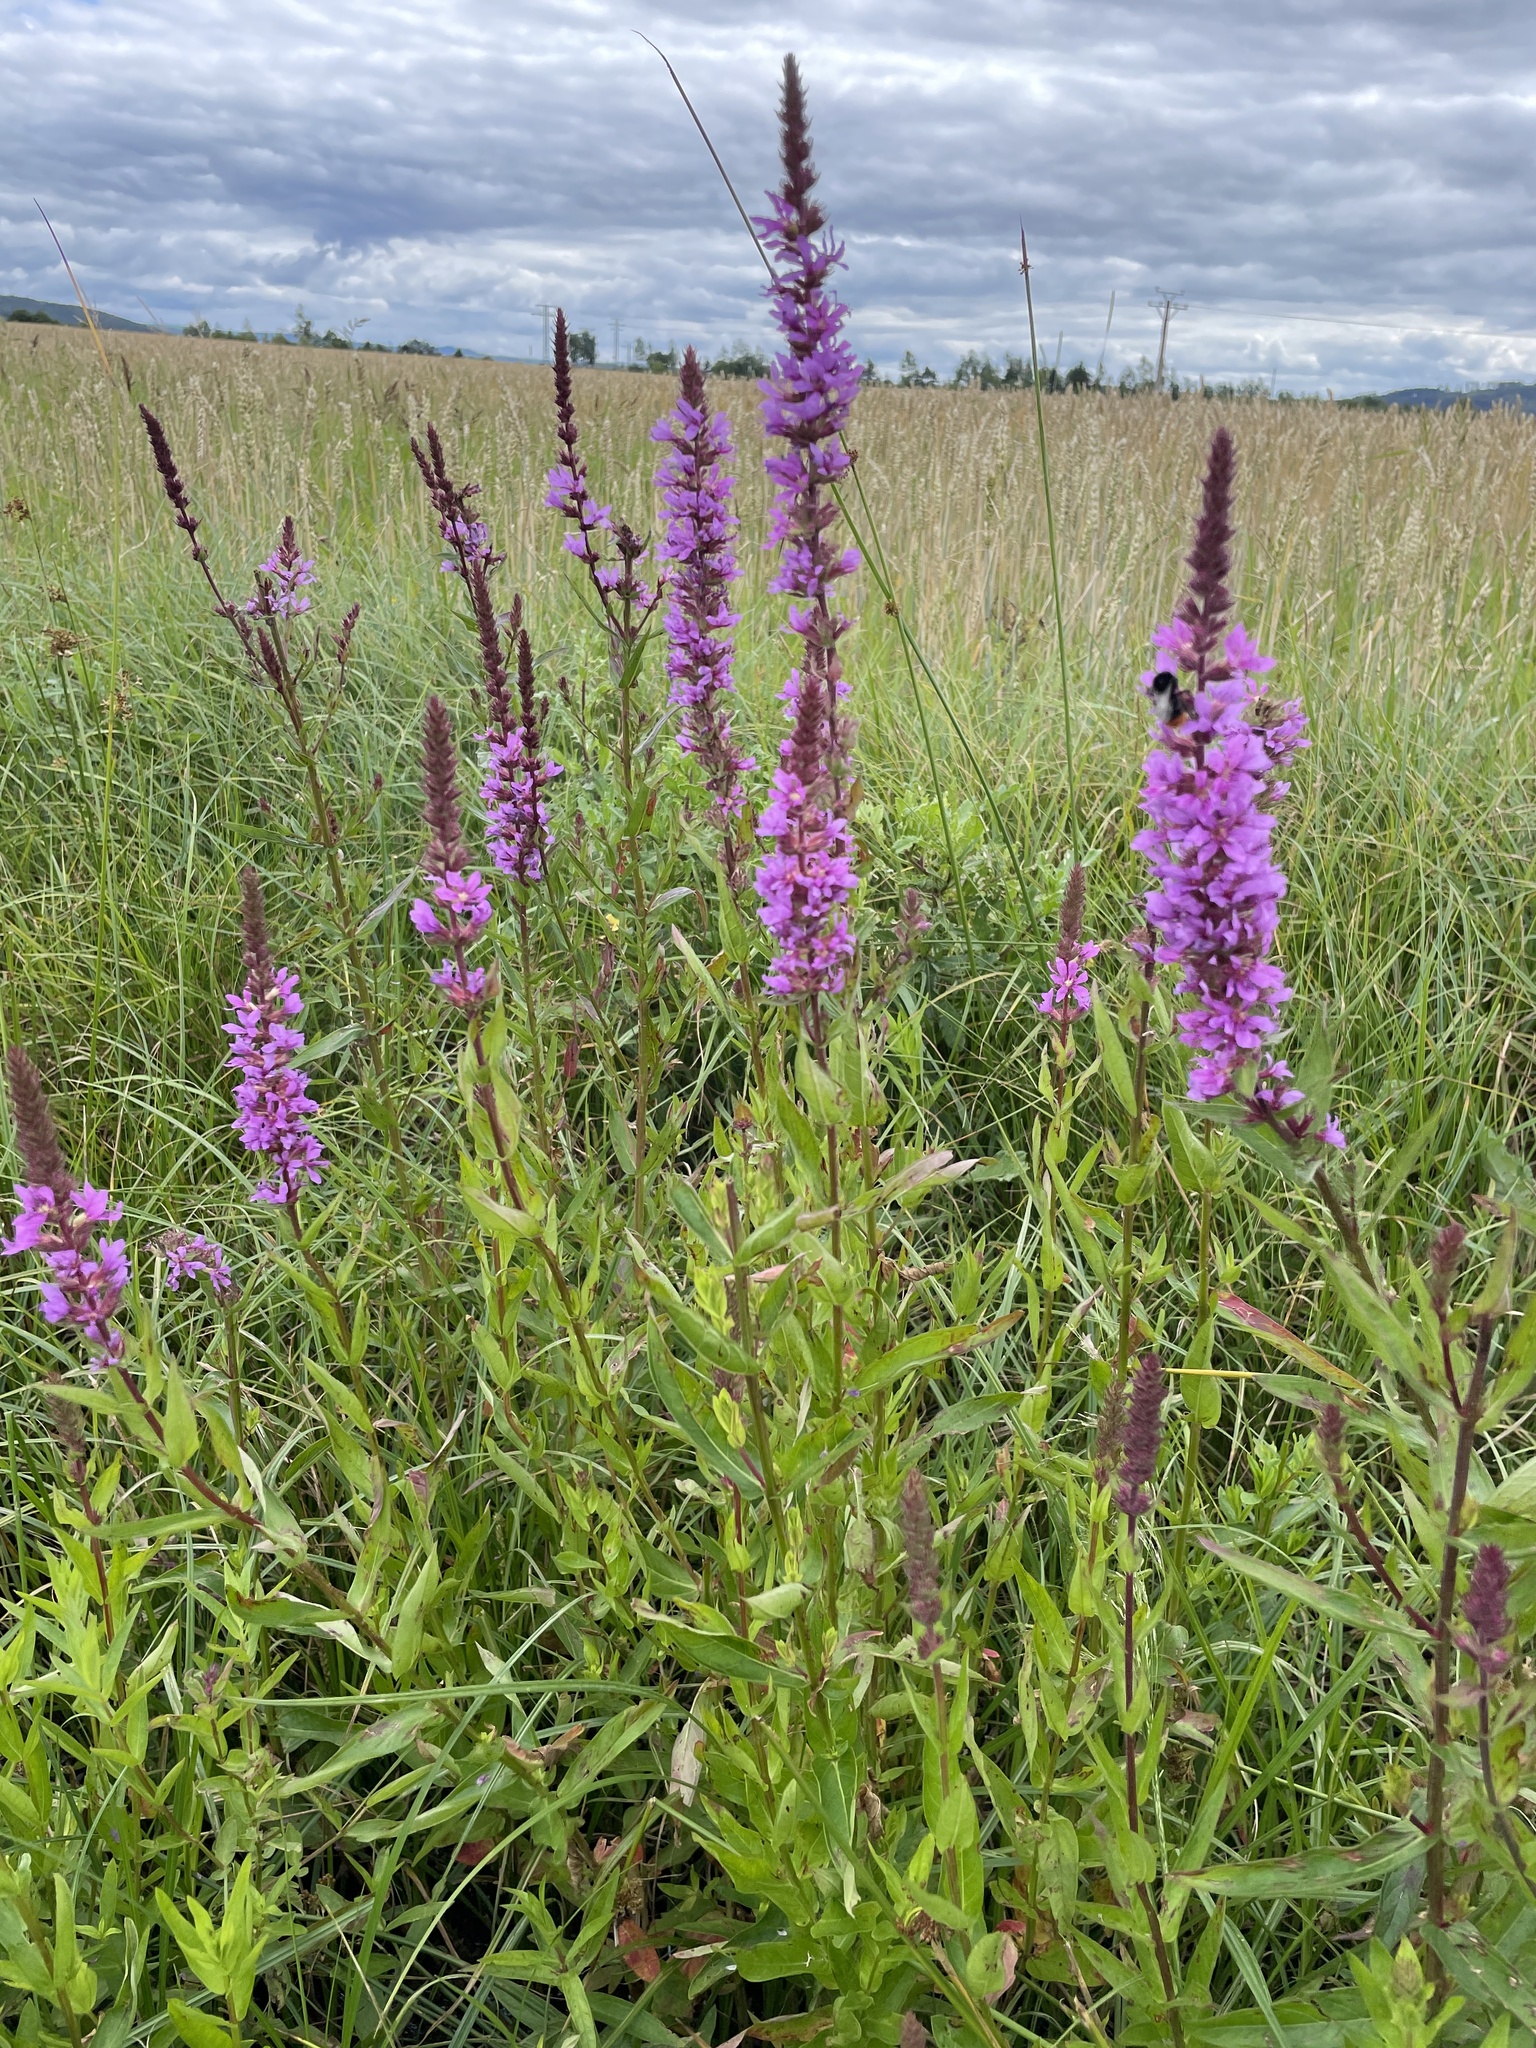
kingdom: Plantae
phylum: Tracheophyta
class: Magnoliopsida
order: Myrtales
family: Lythraceae
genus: Lythrum
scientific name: Lythrum salicaria
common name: Purple loosestrife
